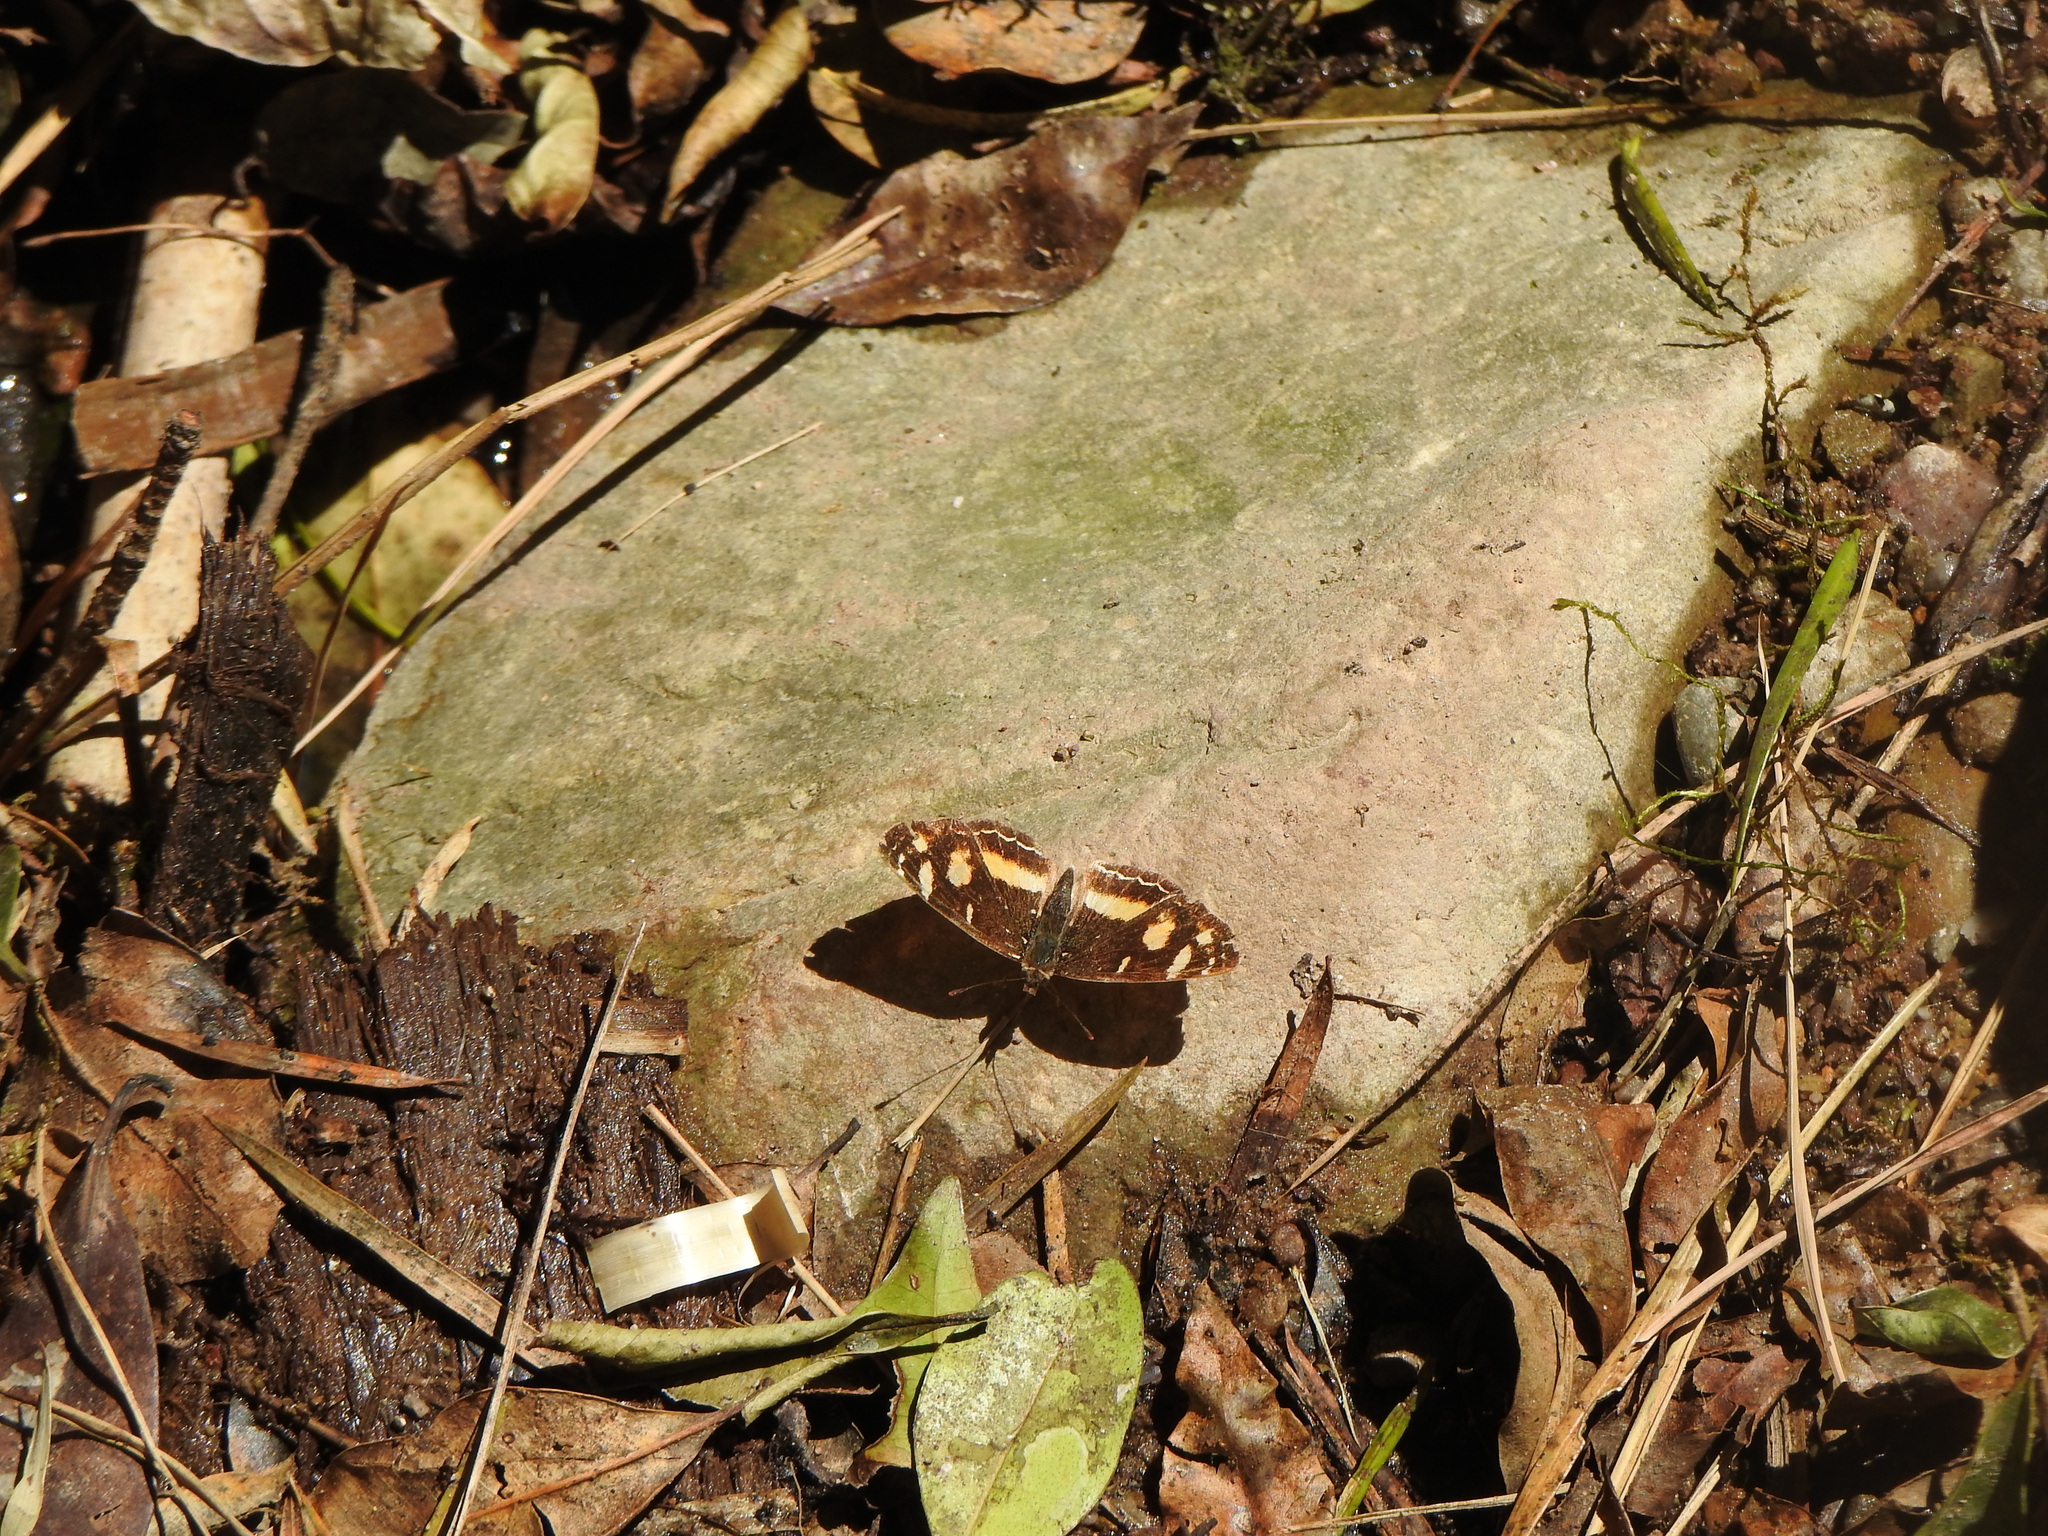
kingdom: Animalia
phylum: Arthropoda
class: Insecta
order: Lepidoptera
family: Nymphalidae
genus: Telenassa
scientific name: Telenassa berenice
